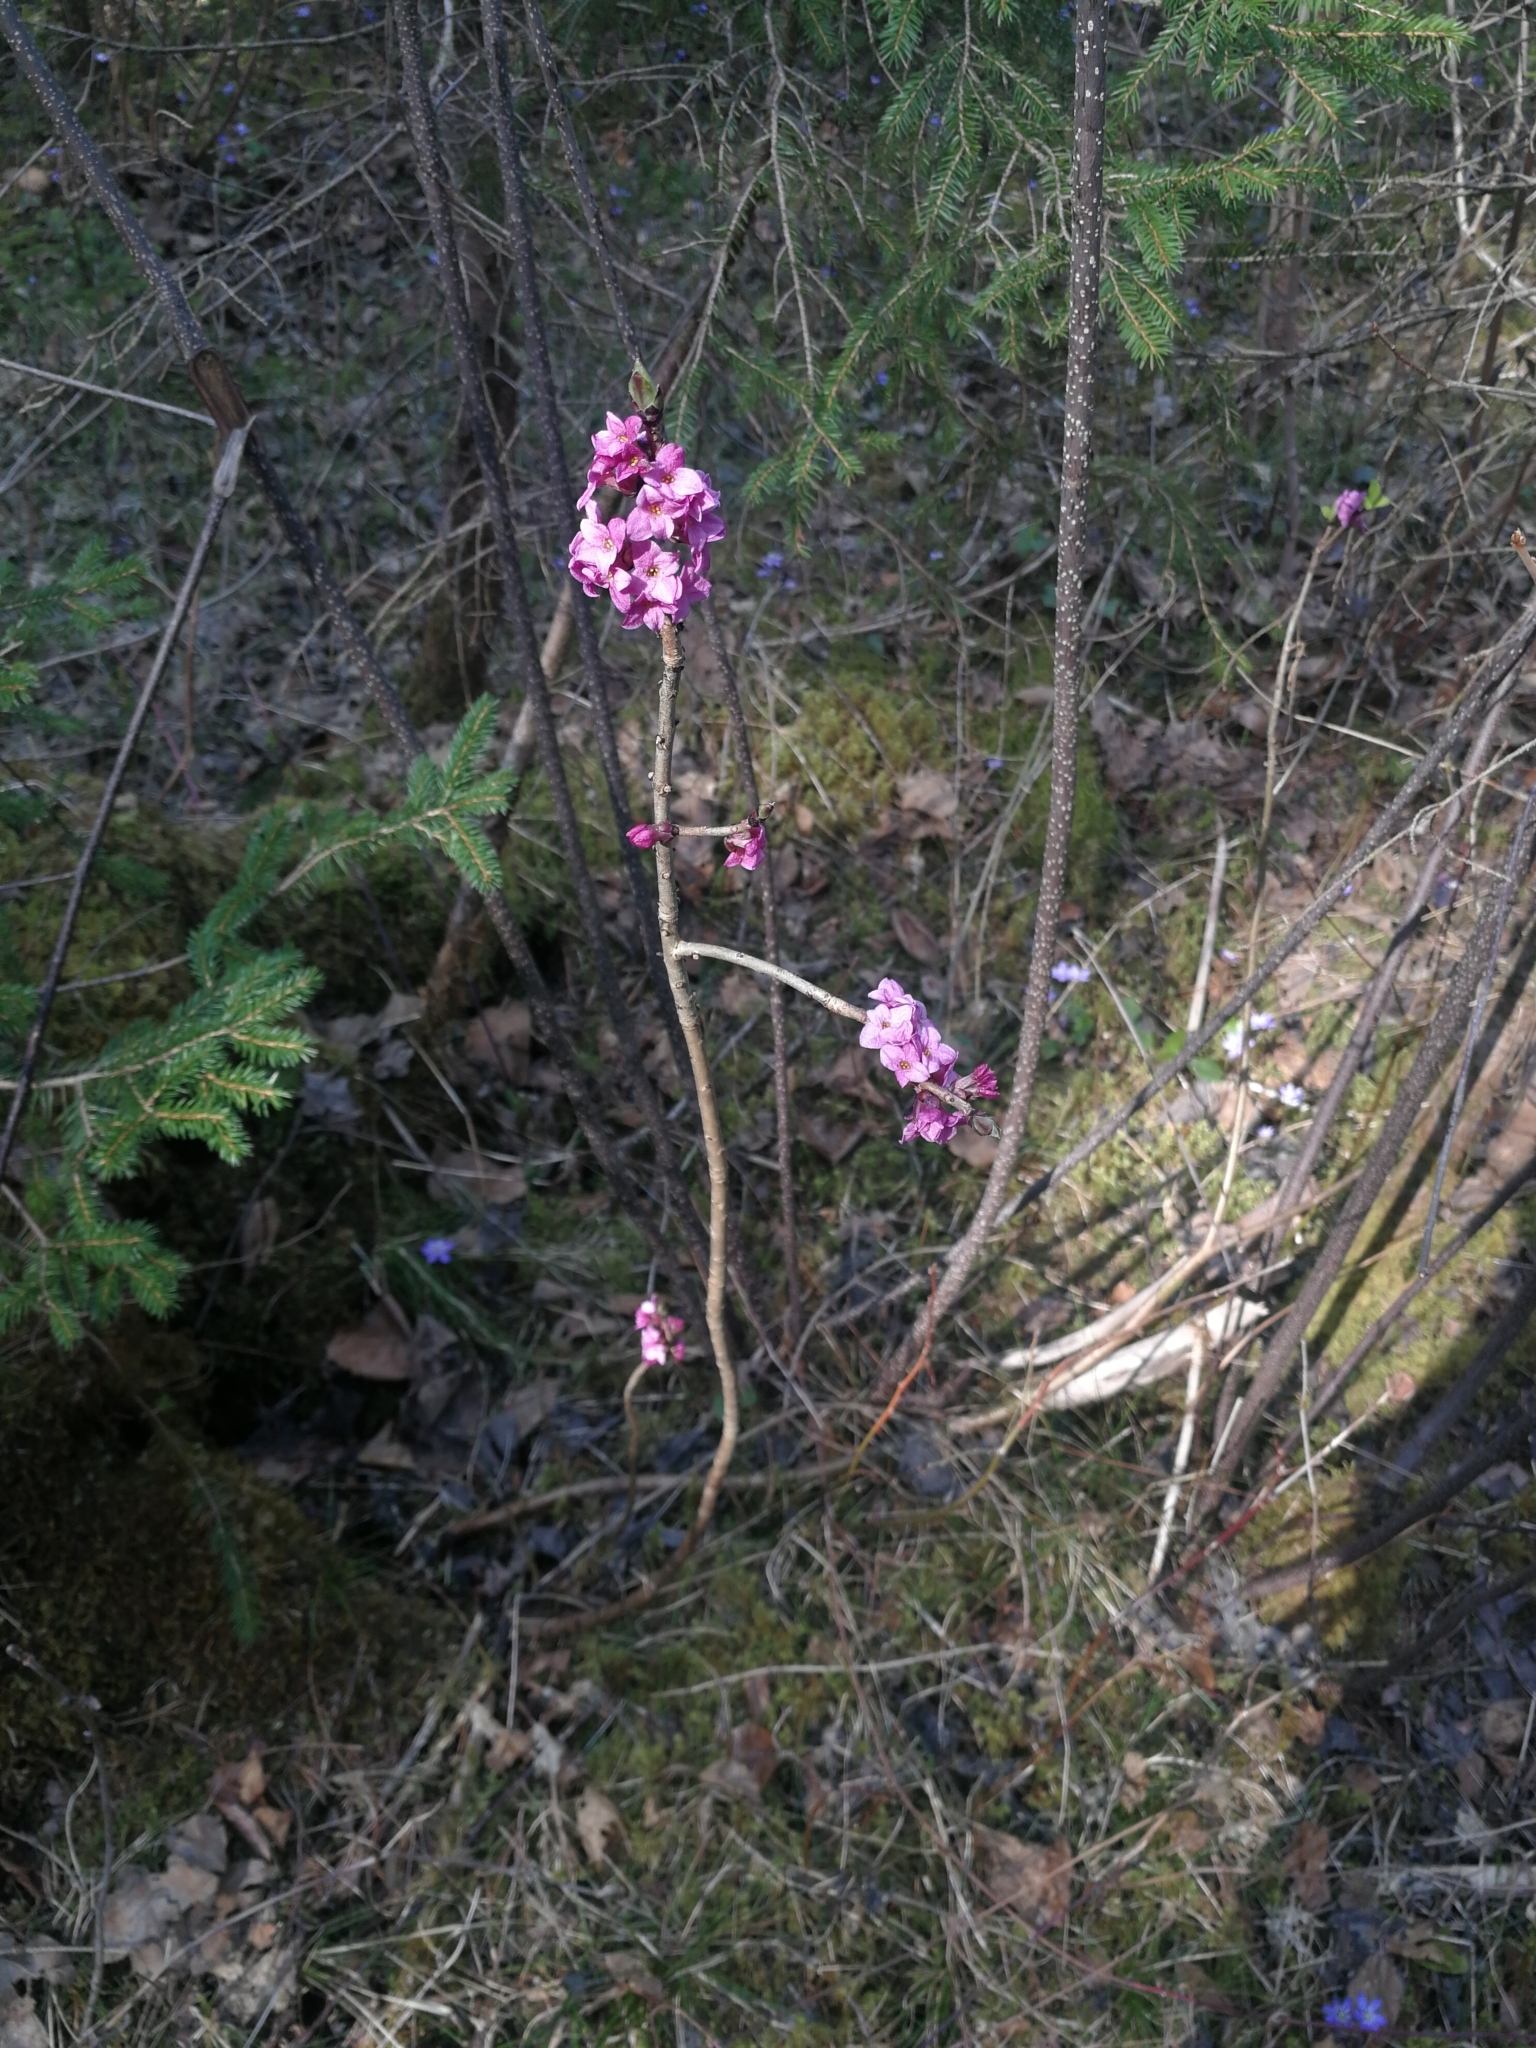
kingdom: Plantae
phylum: Tracheophyta
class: Magnoliopsida
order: Malvales
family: Thymelaeaceae
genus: Daphne
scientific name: Daphne mezereum
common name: Mezereon
